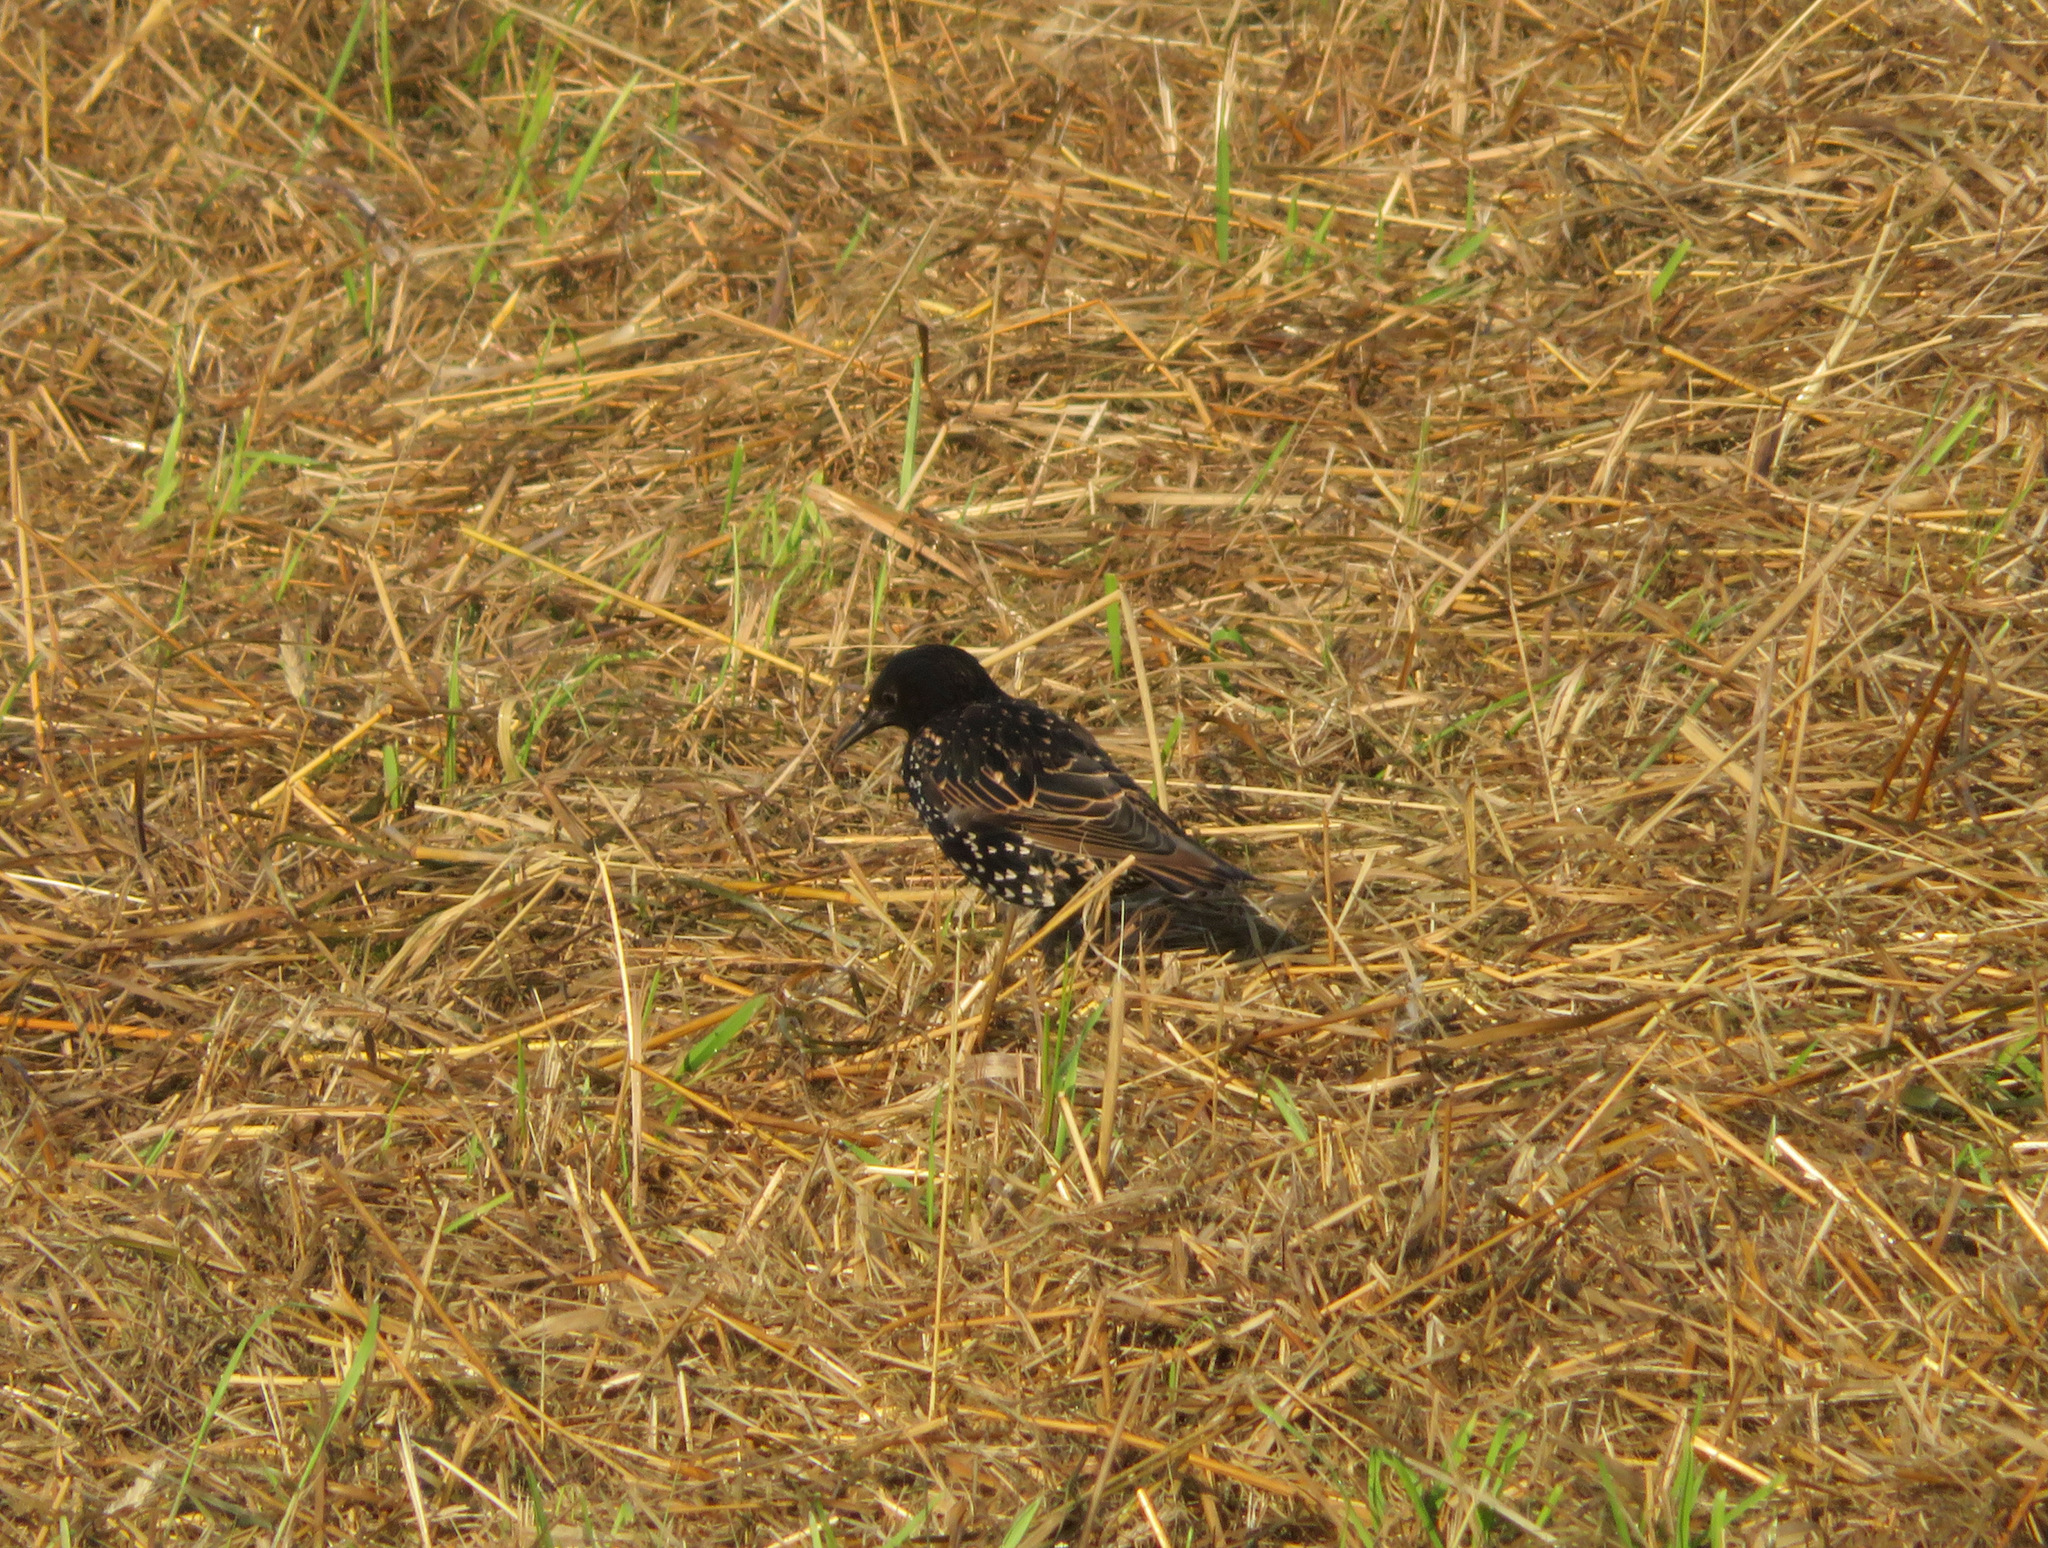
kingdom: Animalia
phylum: Chordata
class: Aves
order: Passeriformes
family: Sturnidae
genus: Sturnus
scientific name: Sturnus vulgaris
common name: Common starling
